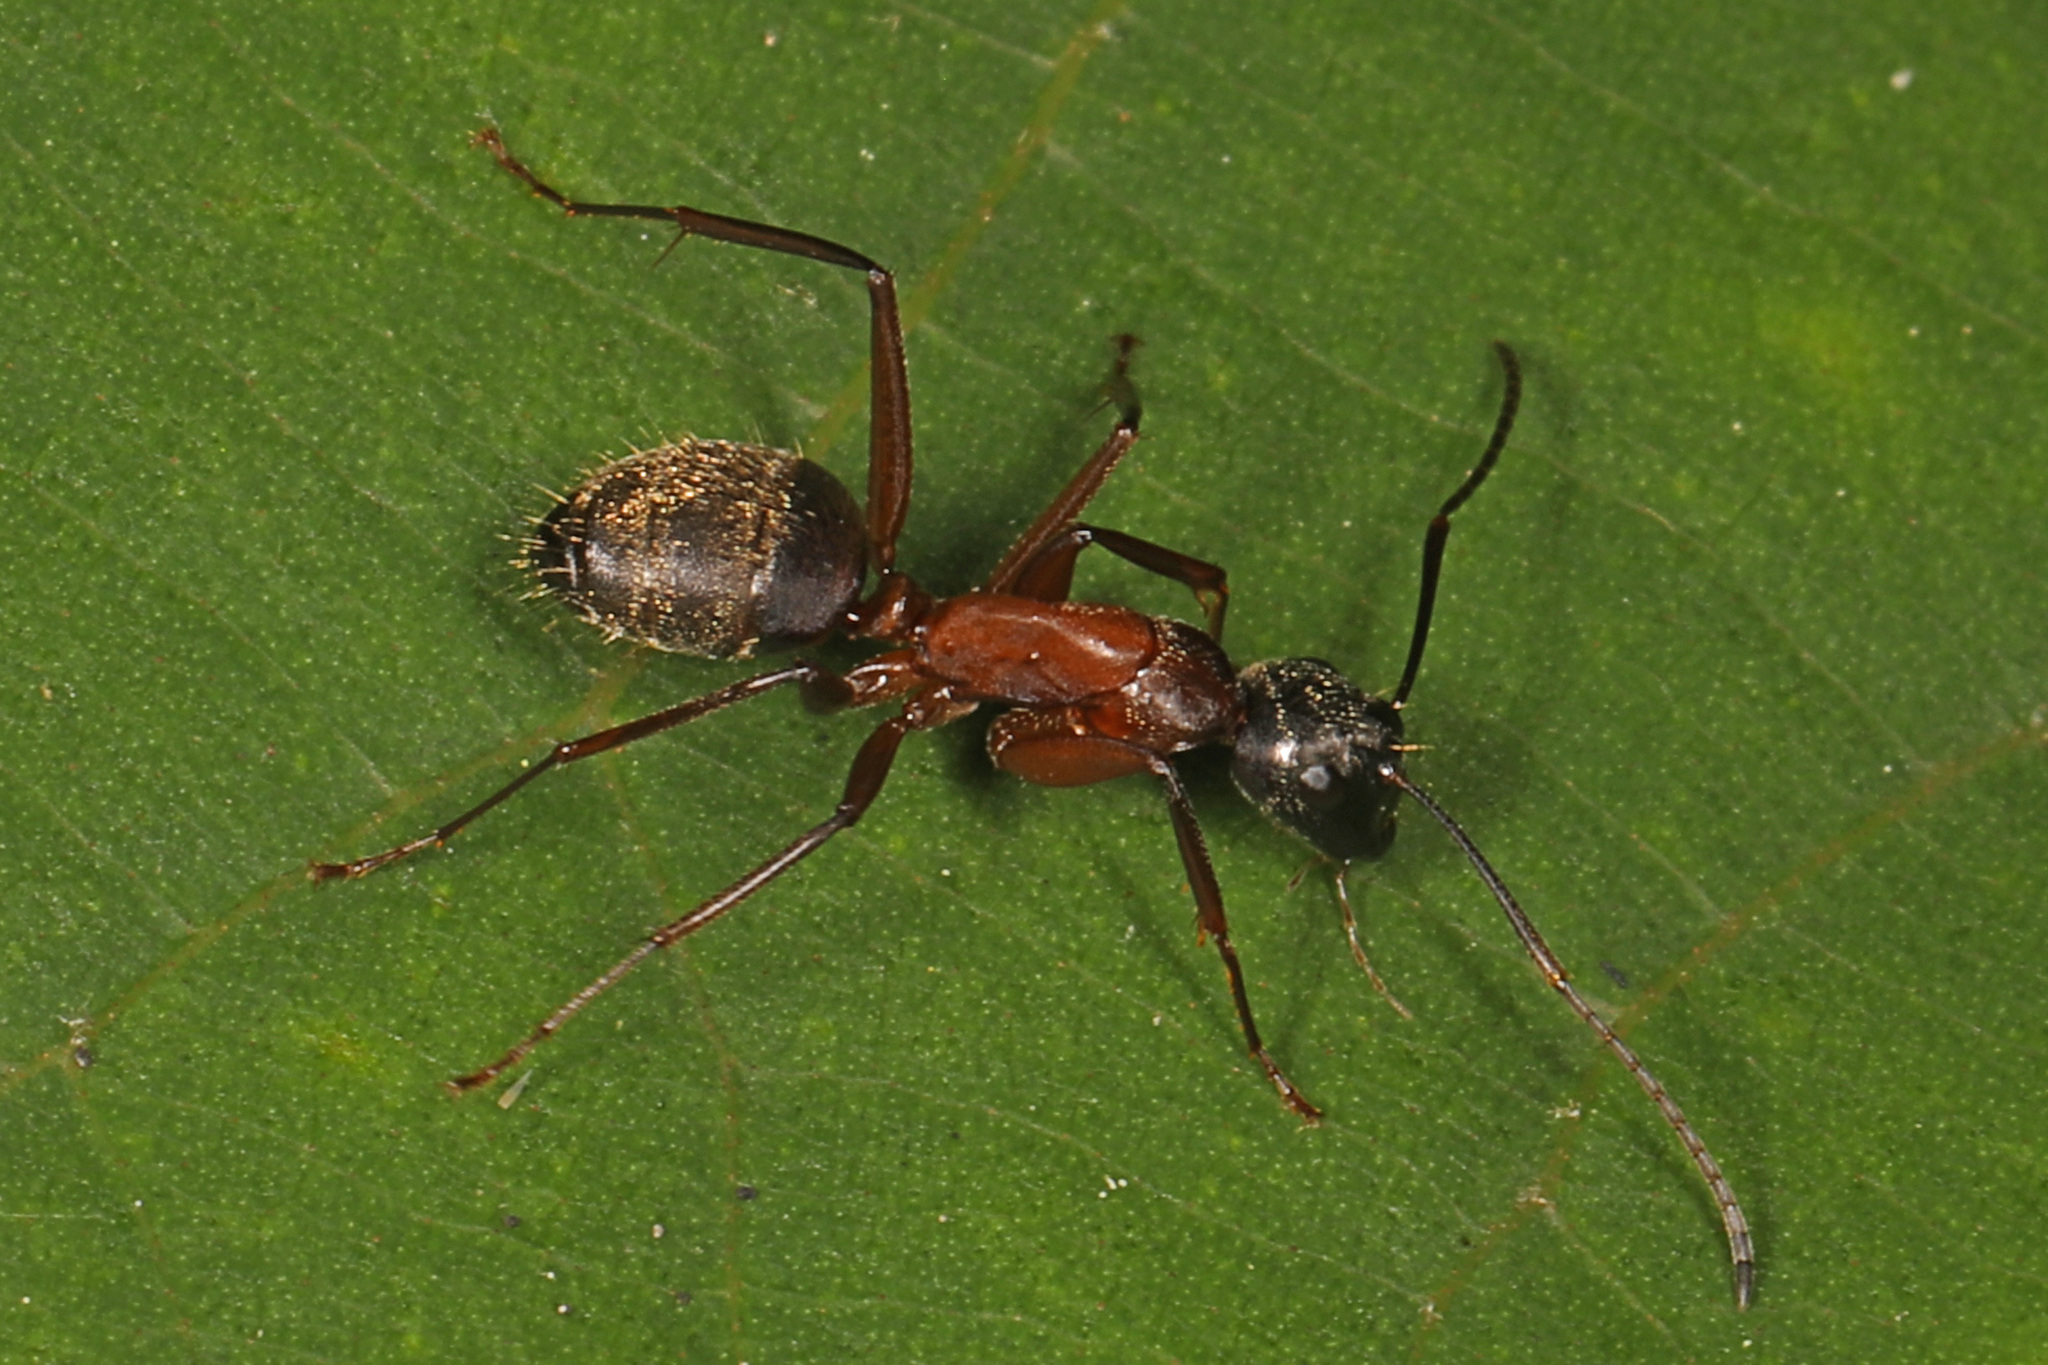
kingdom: Animalia
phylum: Arthropoda
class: Insecta
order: Hymenoptera
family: Formicidae
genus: Camponotus
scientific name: Camponotus chromaiodes
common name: Red carpenter ant
